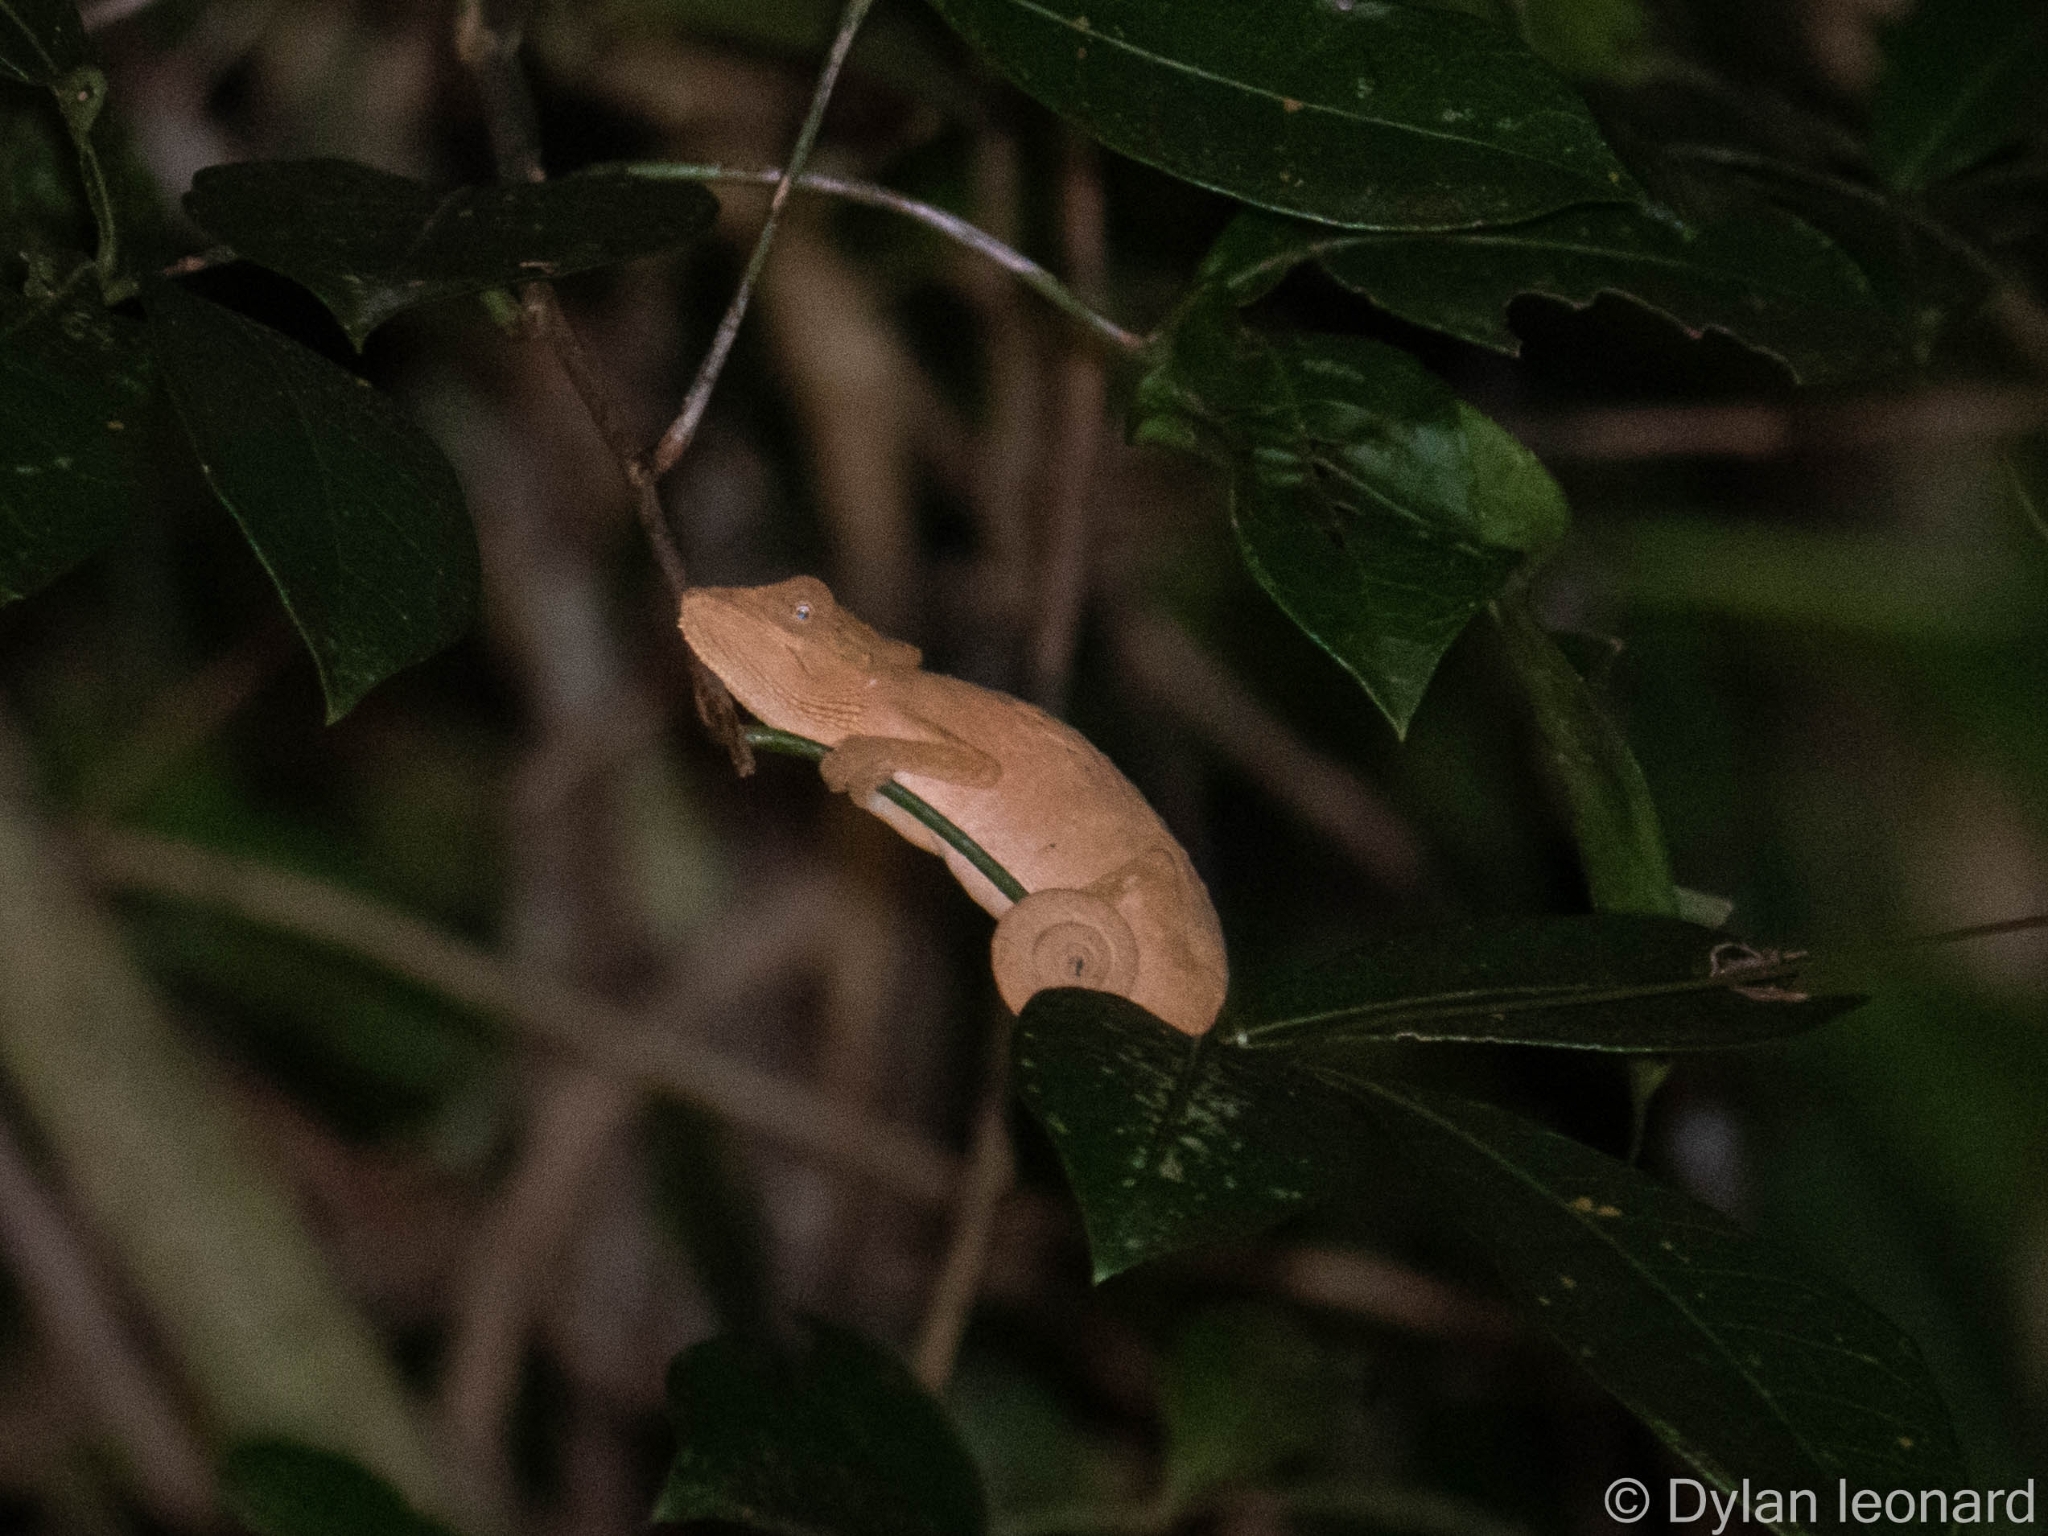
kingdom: Animalia
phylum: Chordata
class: Squamata
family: Chamaeleonidae
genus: Bradypodion
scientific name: Bradypodion setaroi
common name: Setaro's dwarf chameleon
